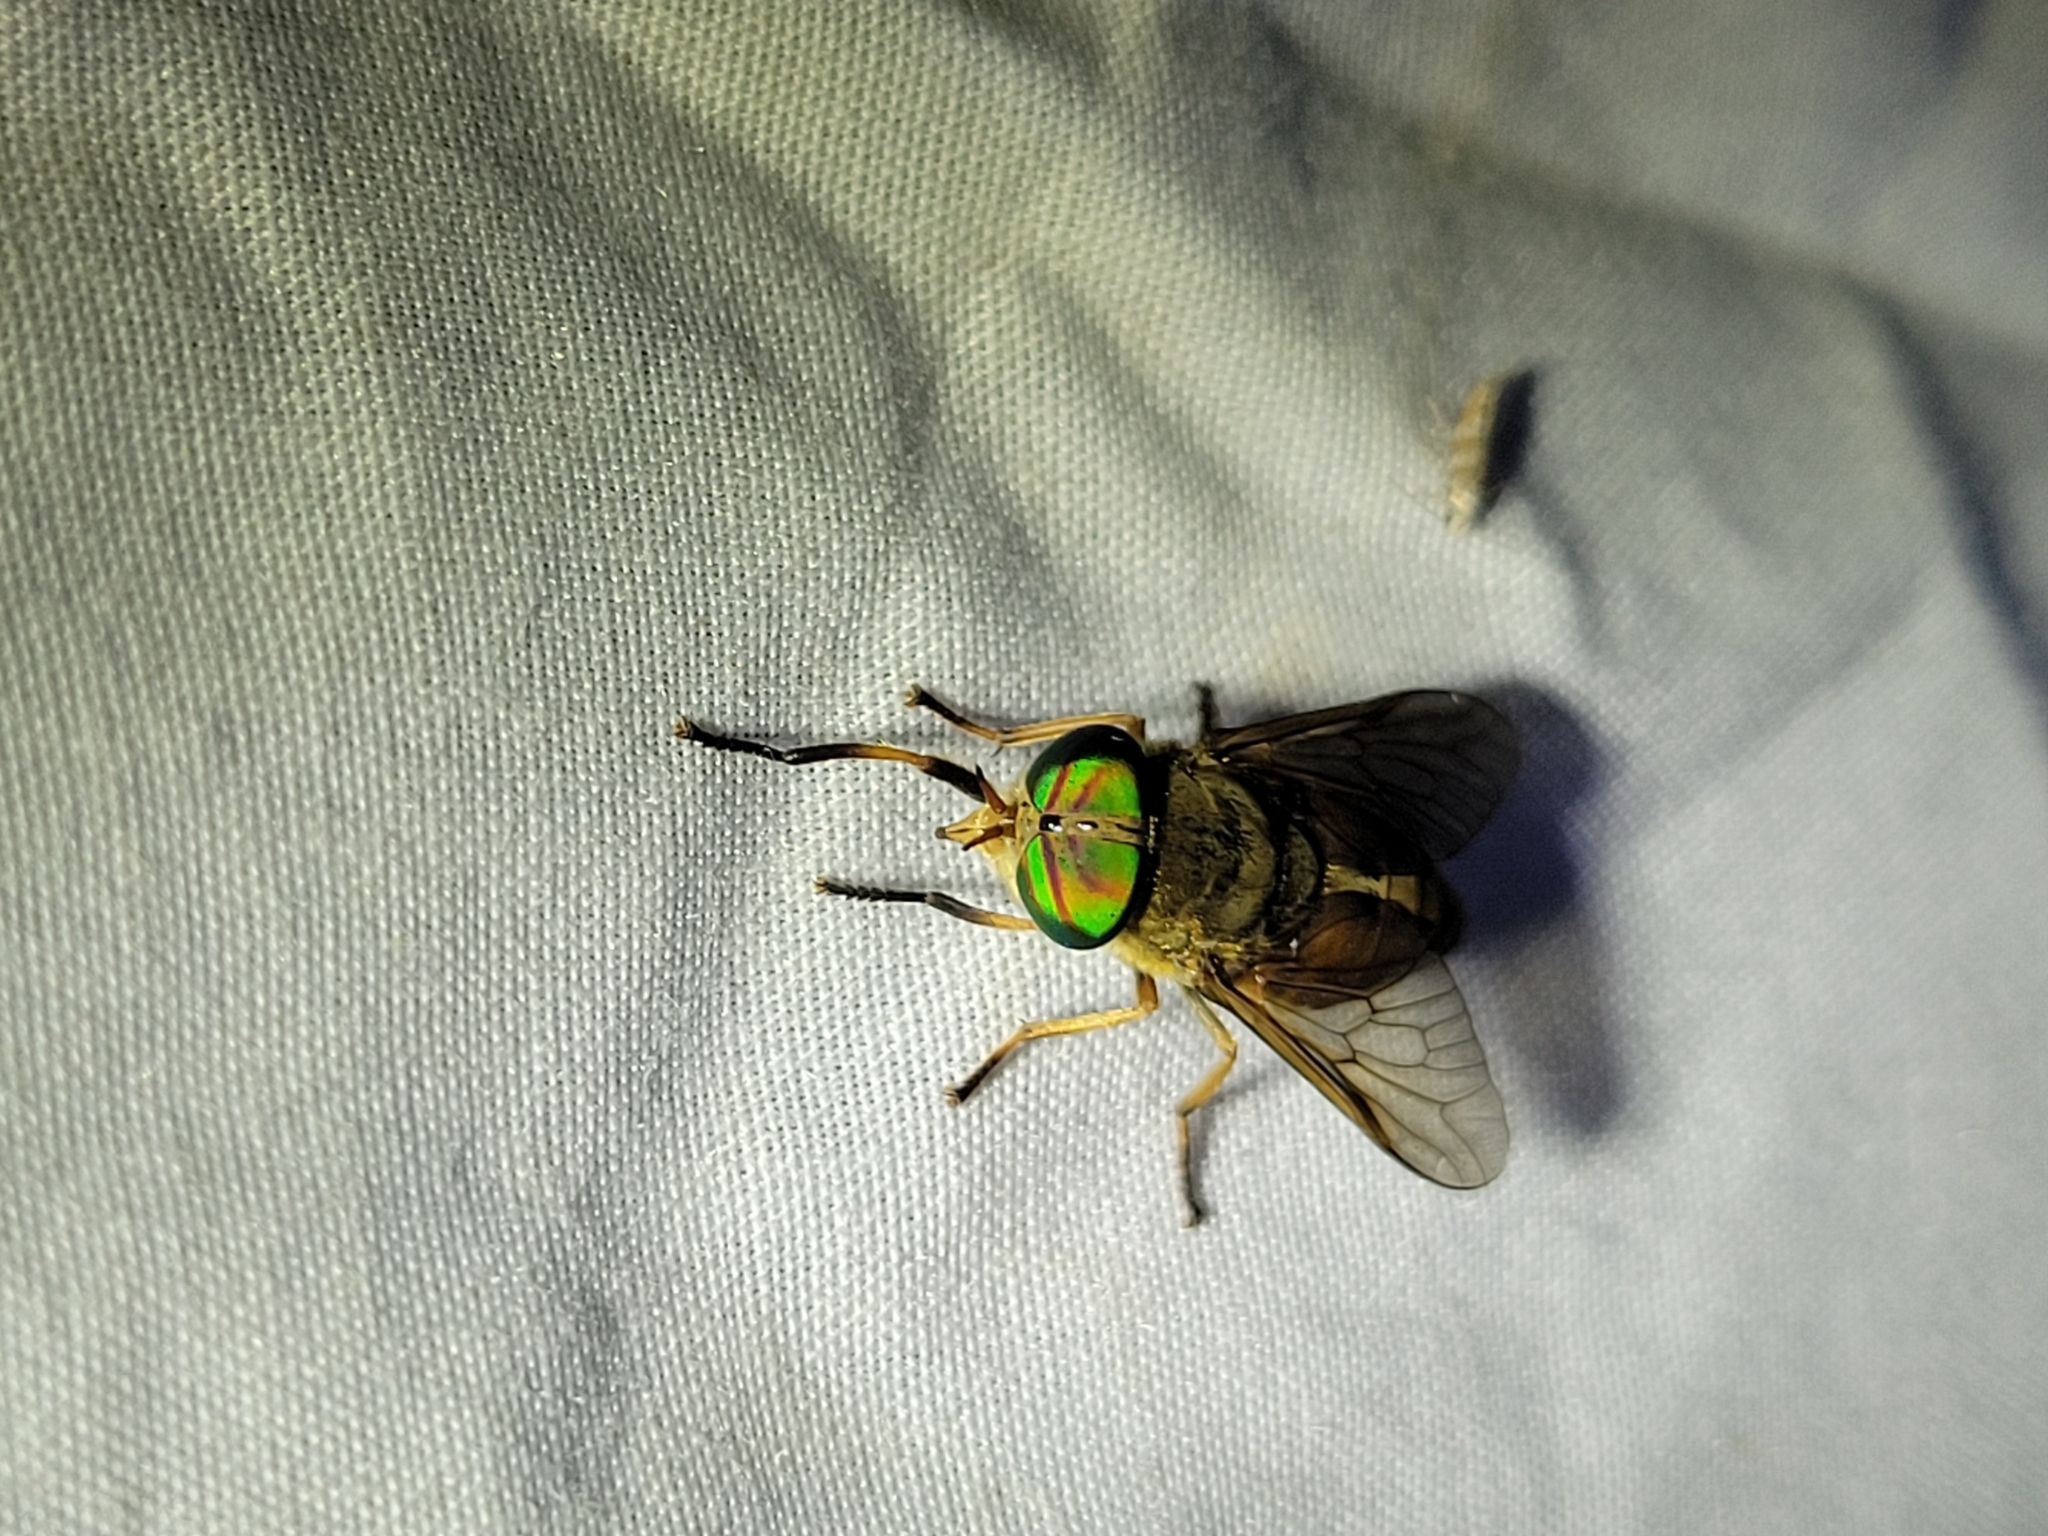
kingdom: Animalia
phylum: Arthropoda
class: Insecta
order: Diptera
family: Tabanidae
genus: Tabanus
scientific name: Tabanus
